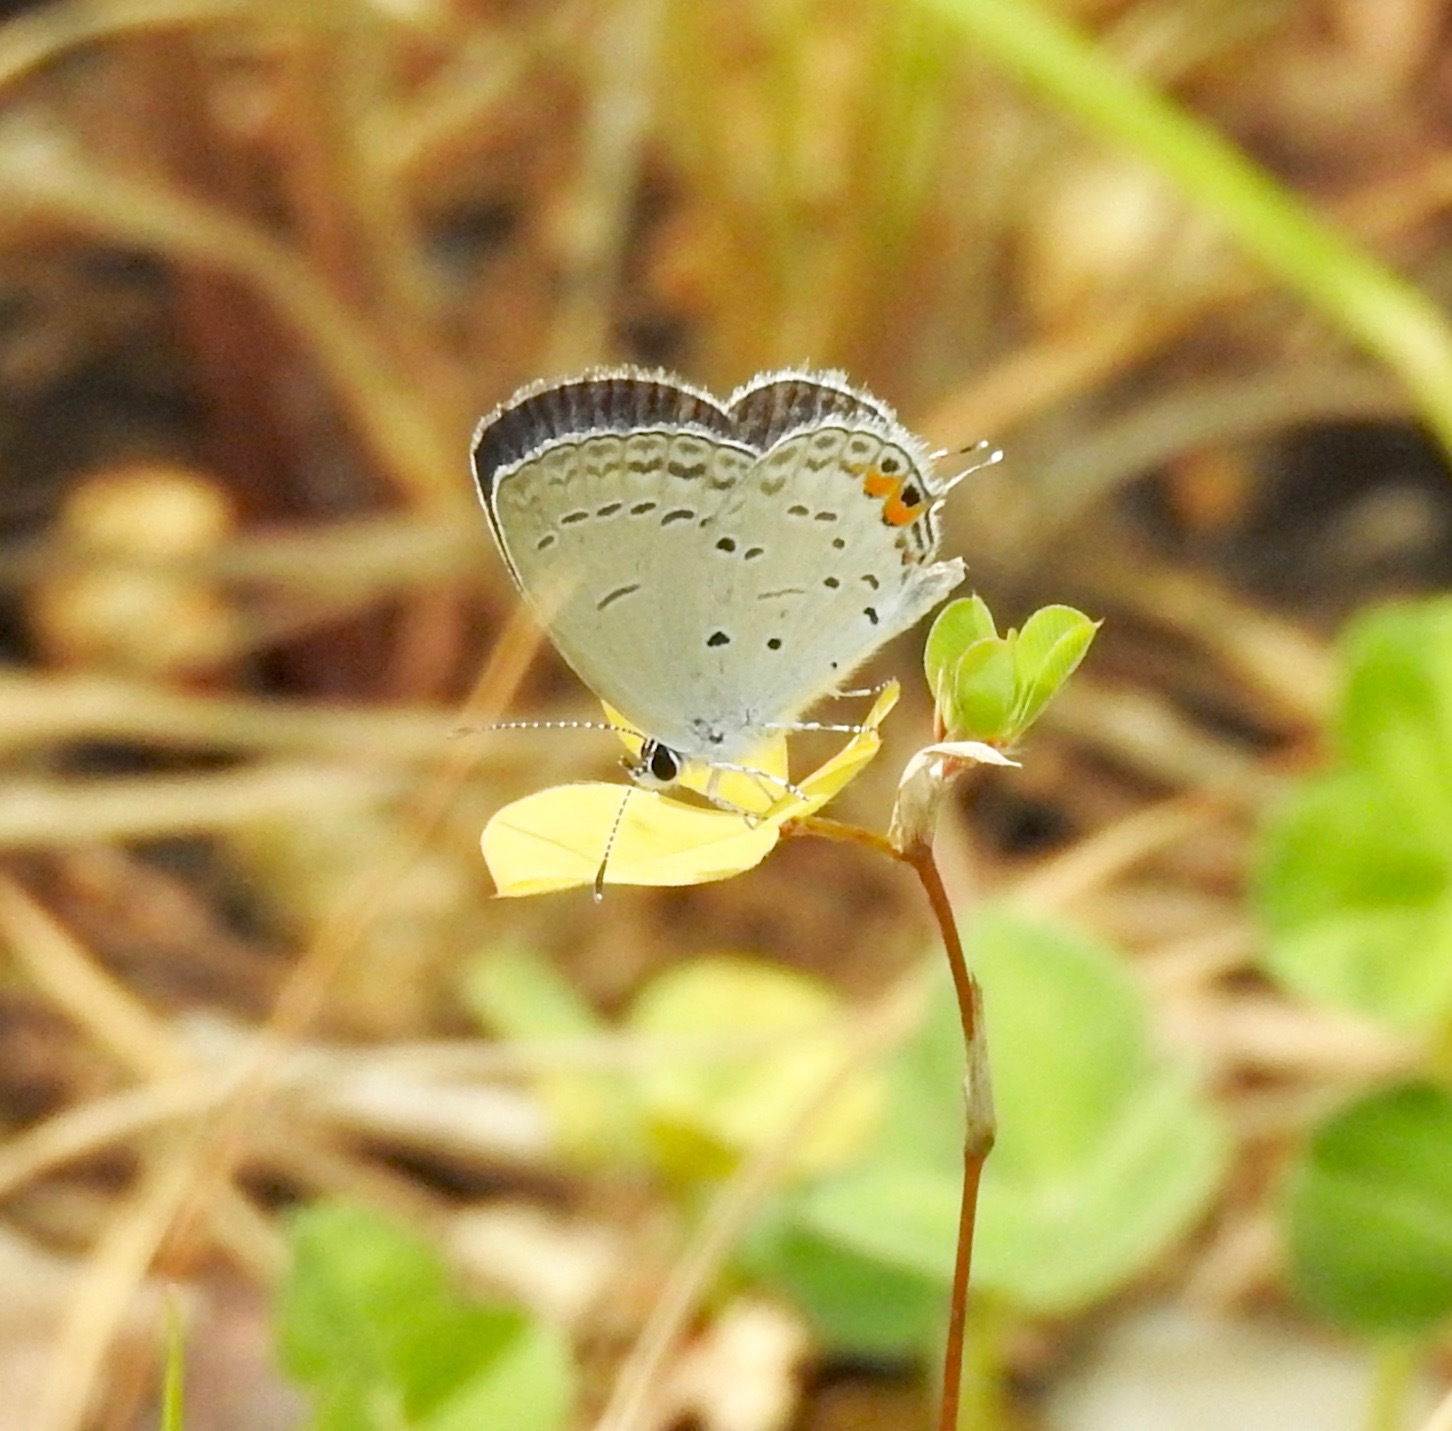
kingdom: Animalia
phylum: Arthropoda
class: Insecta
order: Lepidoptera
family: Lycaenidae
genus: Elkalyce
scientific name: Elkalyce comyntas
